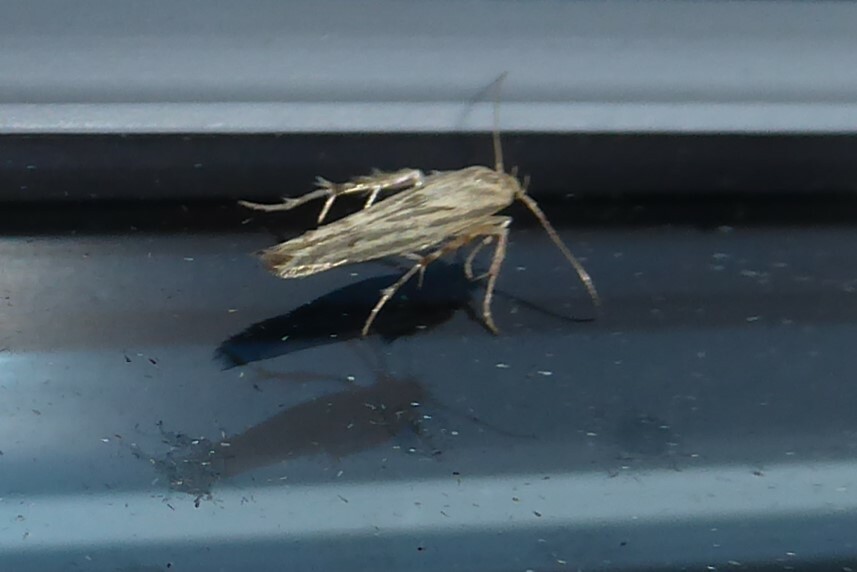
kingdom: Animalia
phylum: Arthropoda
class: Insecta
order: Lepidoptera
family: Stathmopodidae
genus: Stathmopoda
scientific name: Stathmopoda plumbiflua
